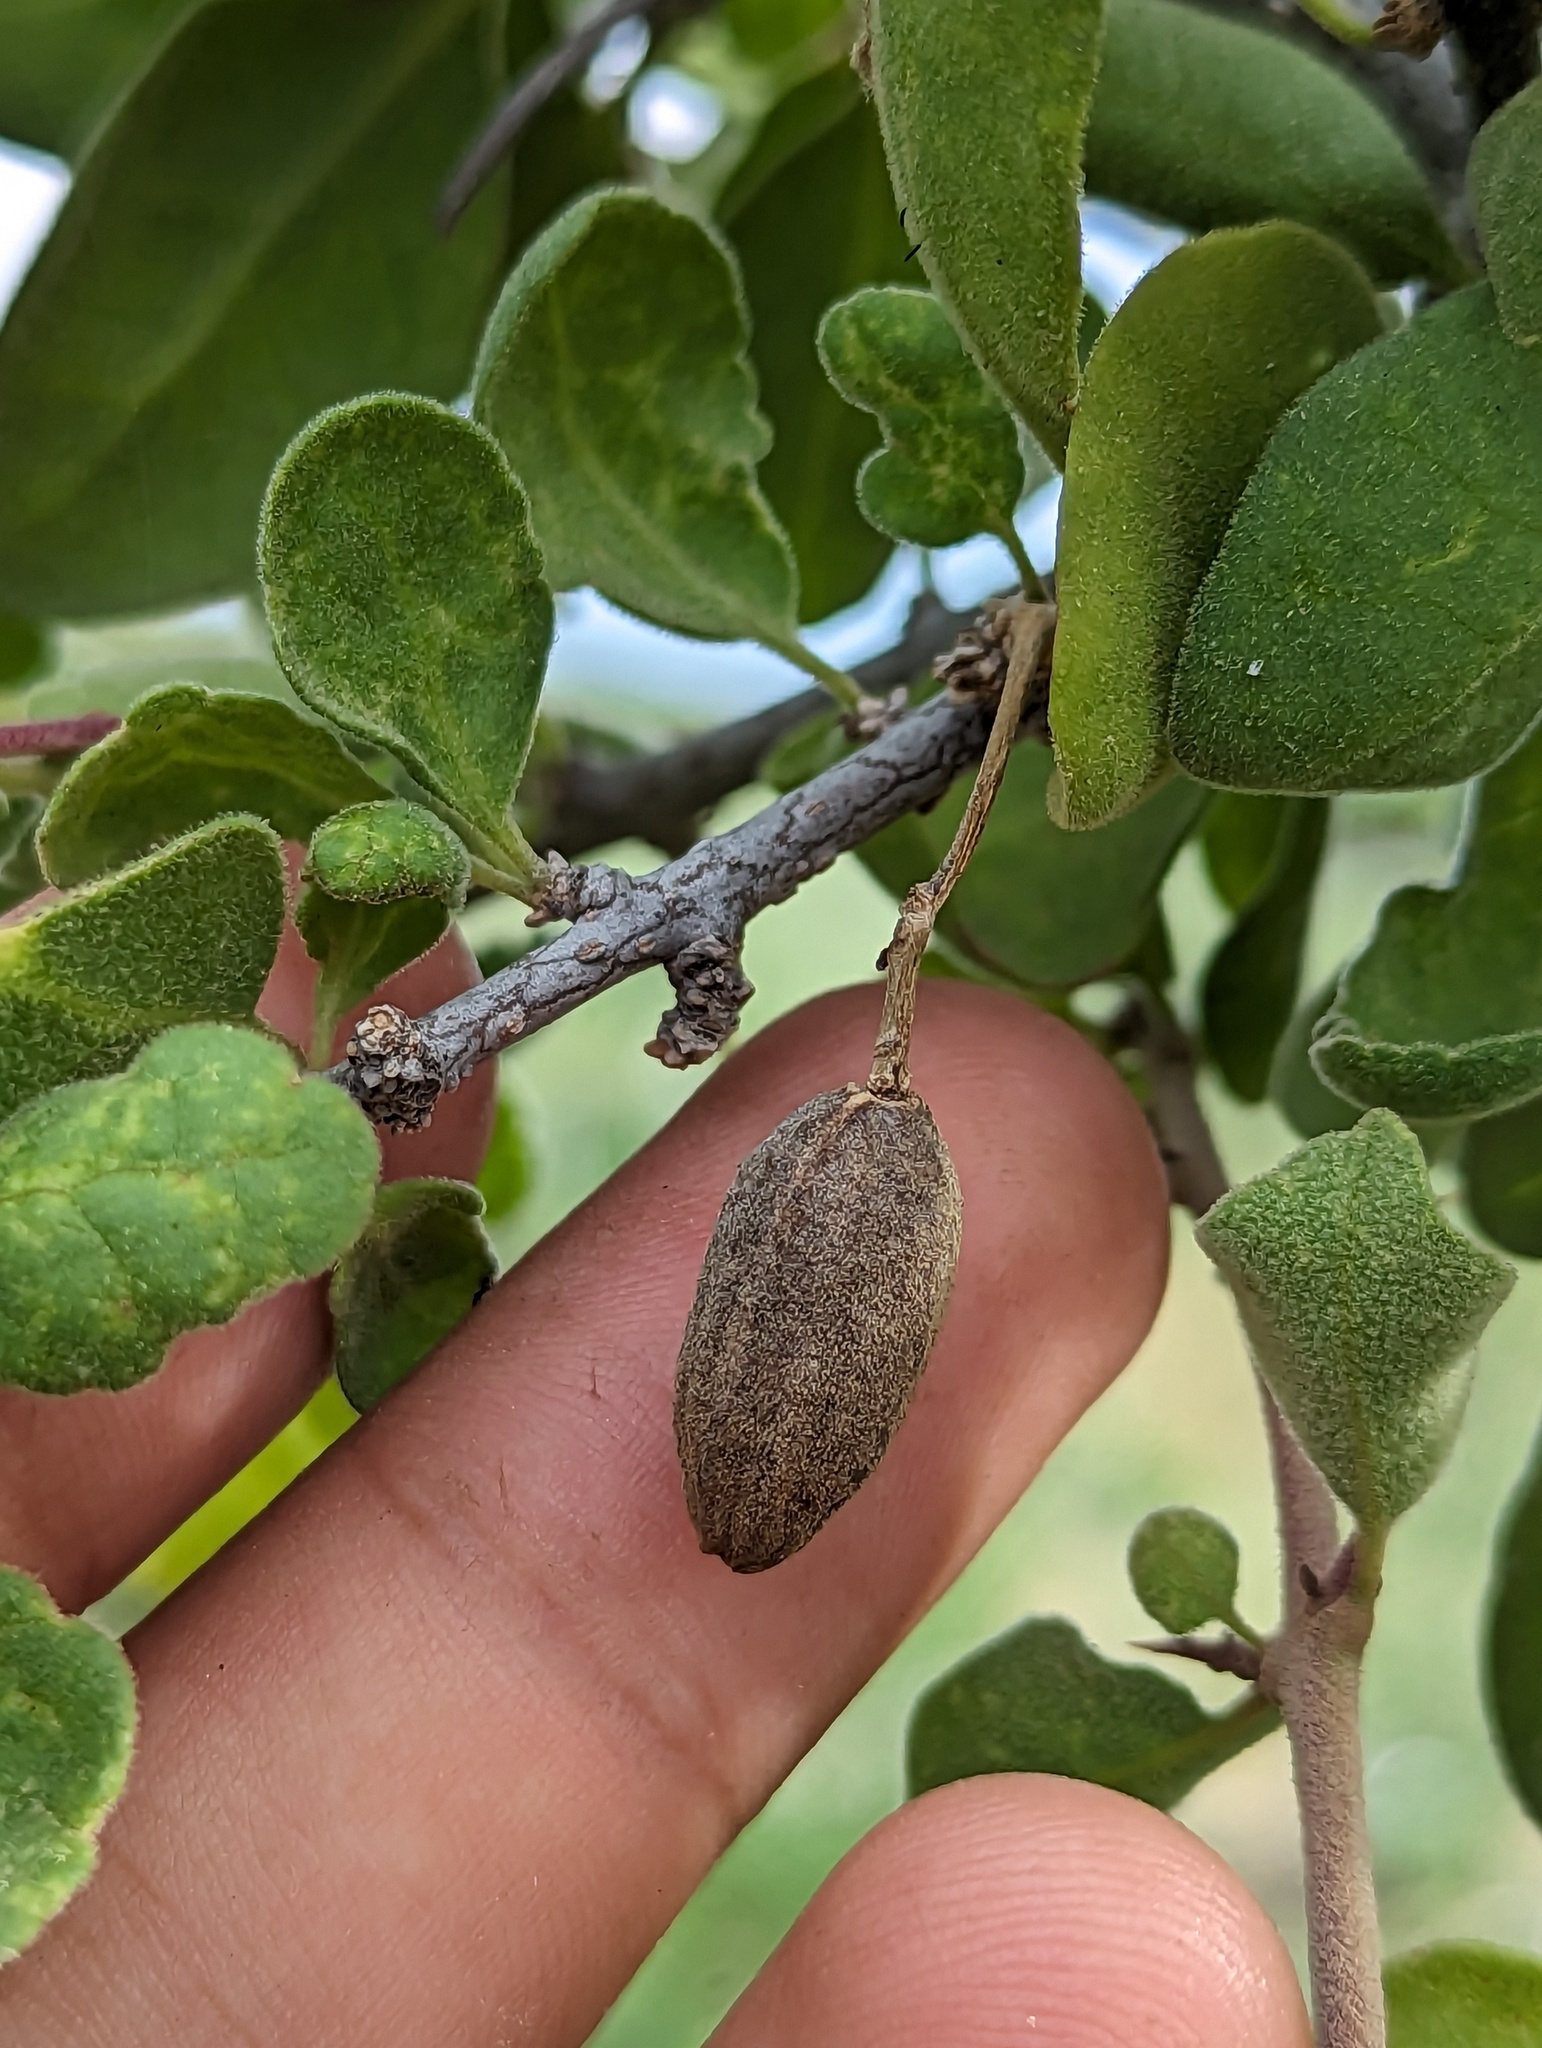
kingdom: Plantae
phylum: Tracheophyta
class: Magnoliopsida
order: Caryophyllales
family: Nyctaginaceae
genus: Pisonia
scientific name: Pisonia calafia
